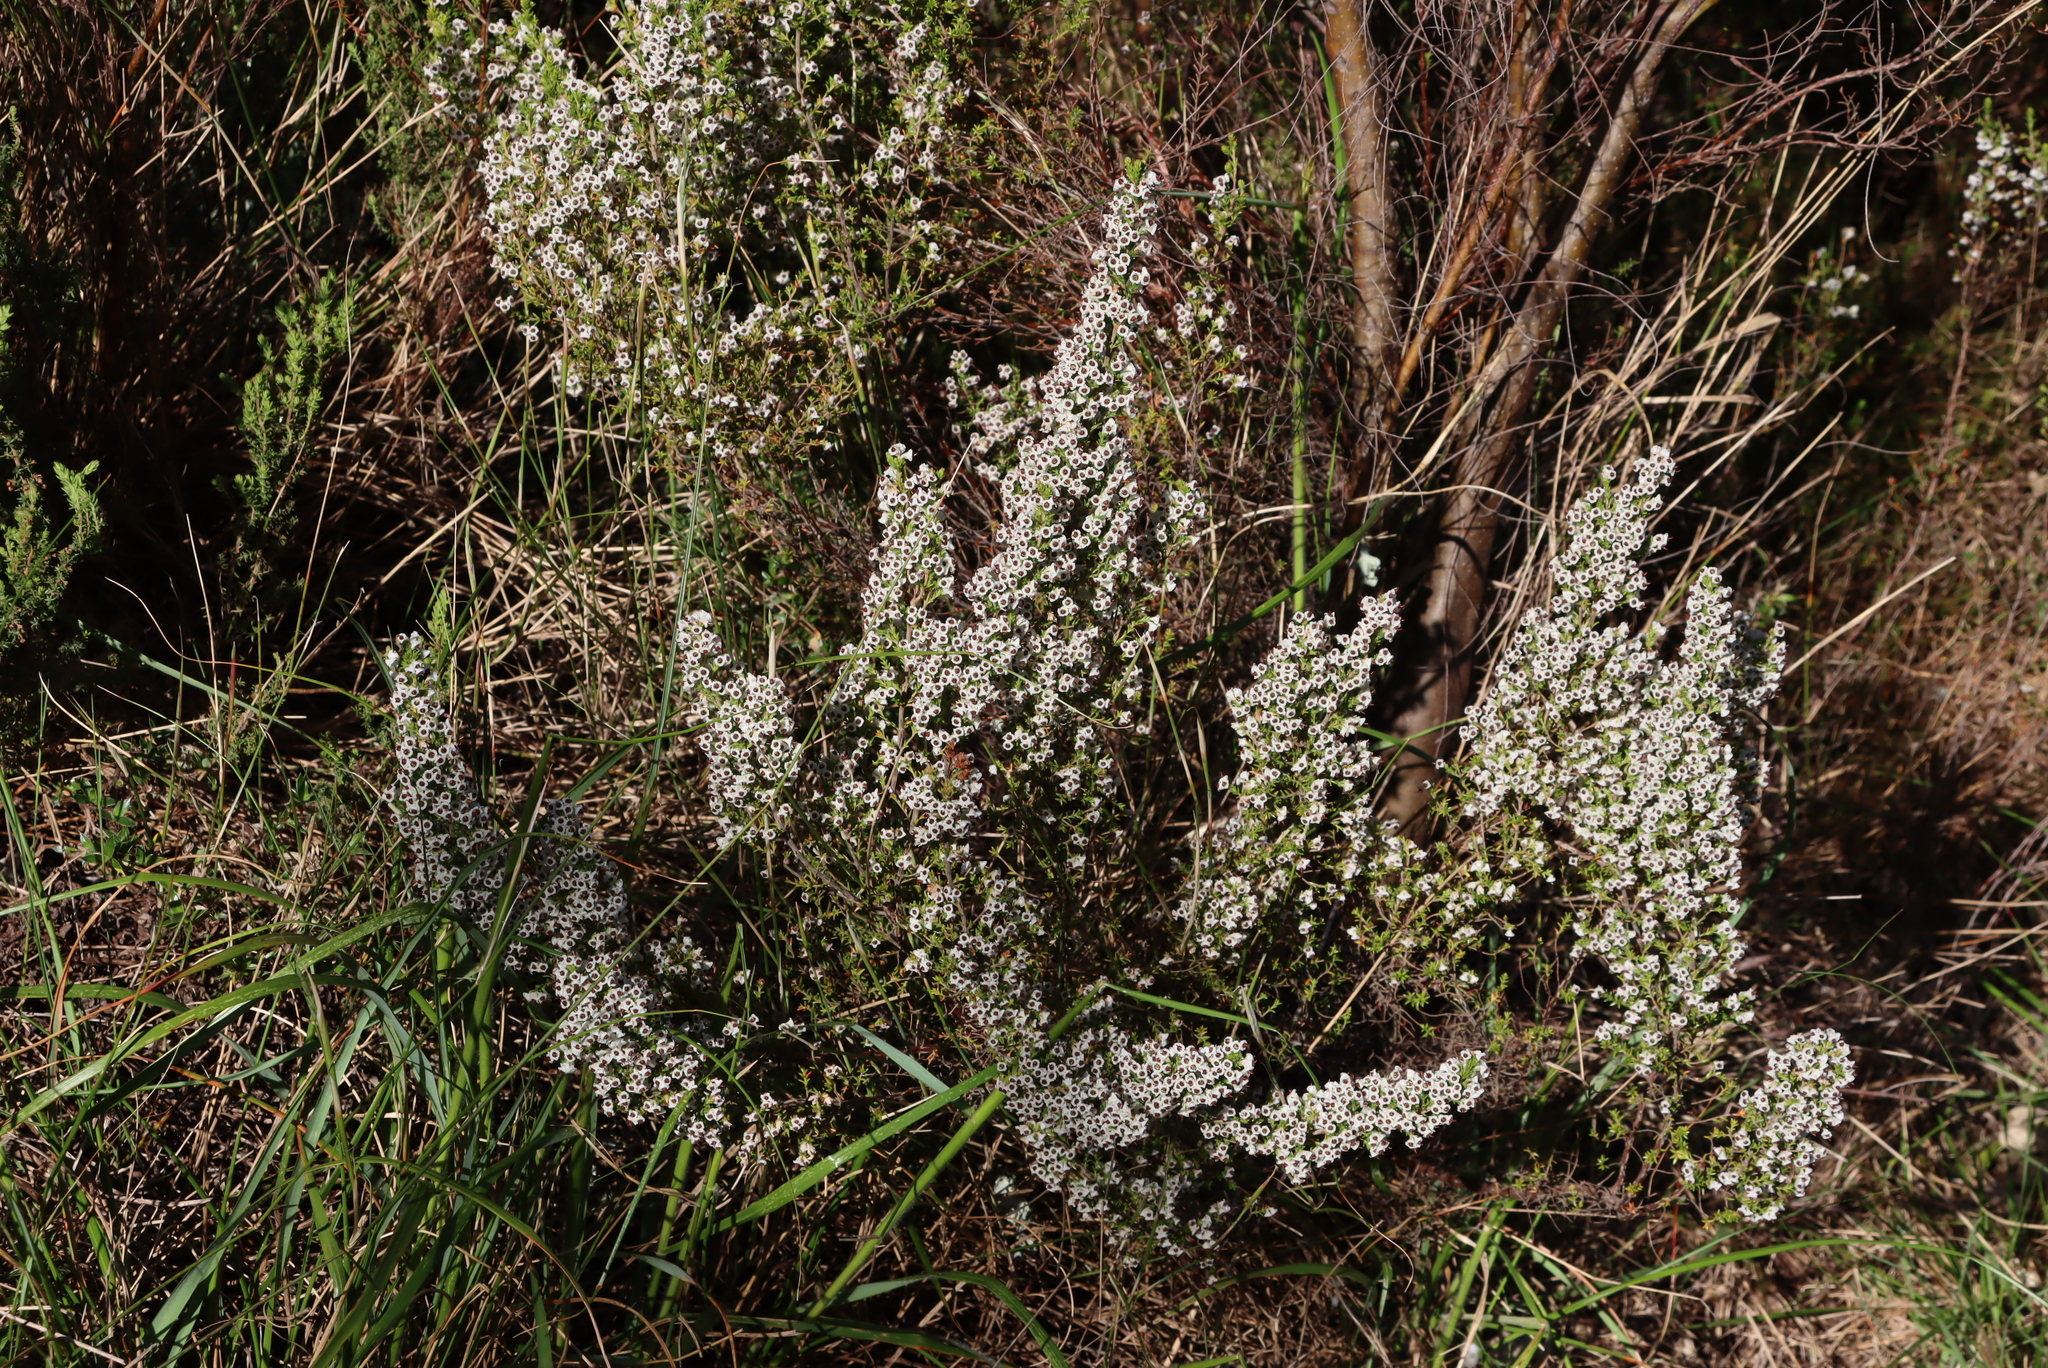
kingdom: Plantae
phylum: Tracheophyta
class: Magnoliopsida
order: Ericales
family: Ericaceae
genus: Erica
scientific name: Erica calycina
